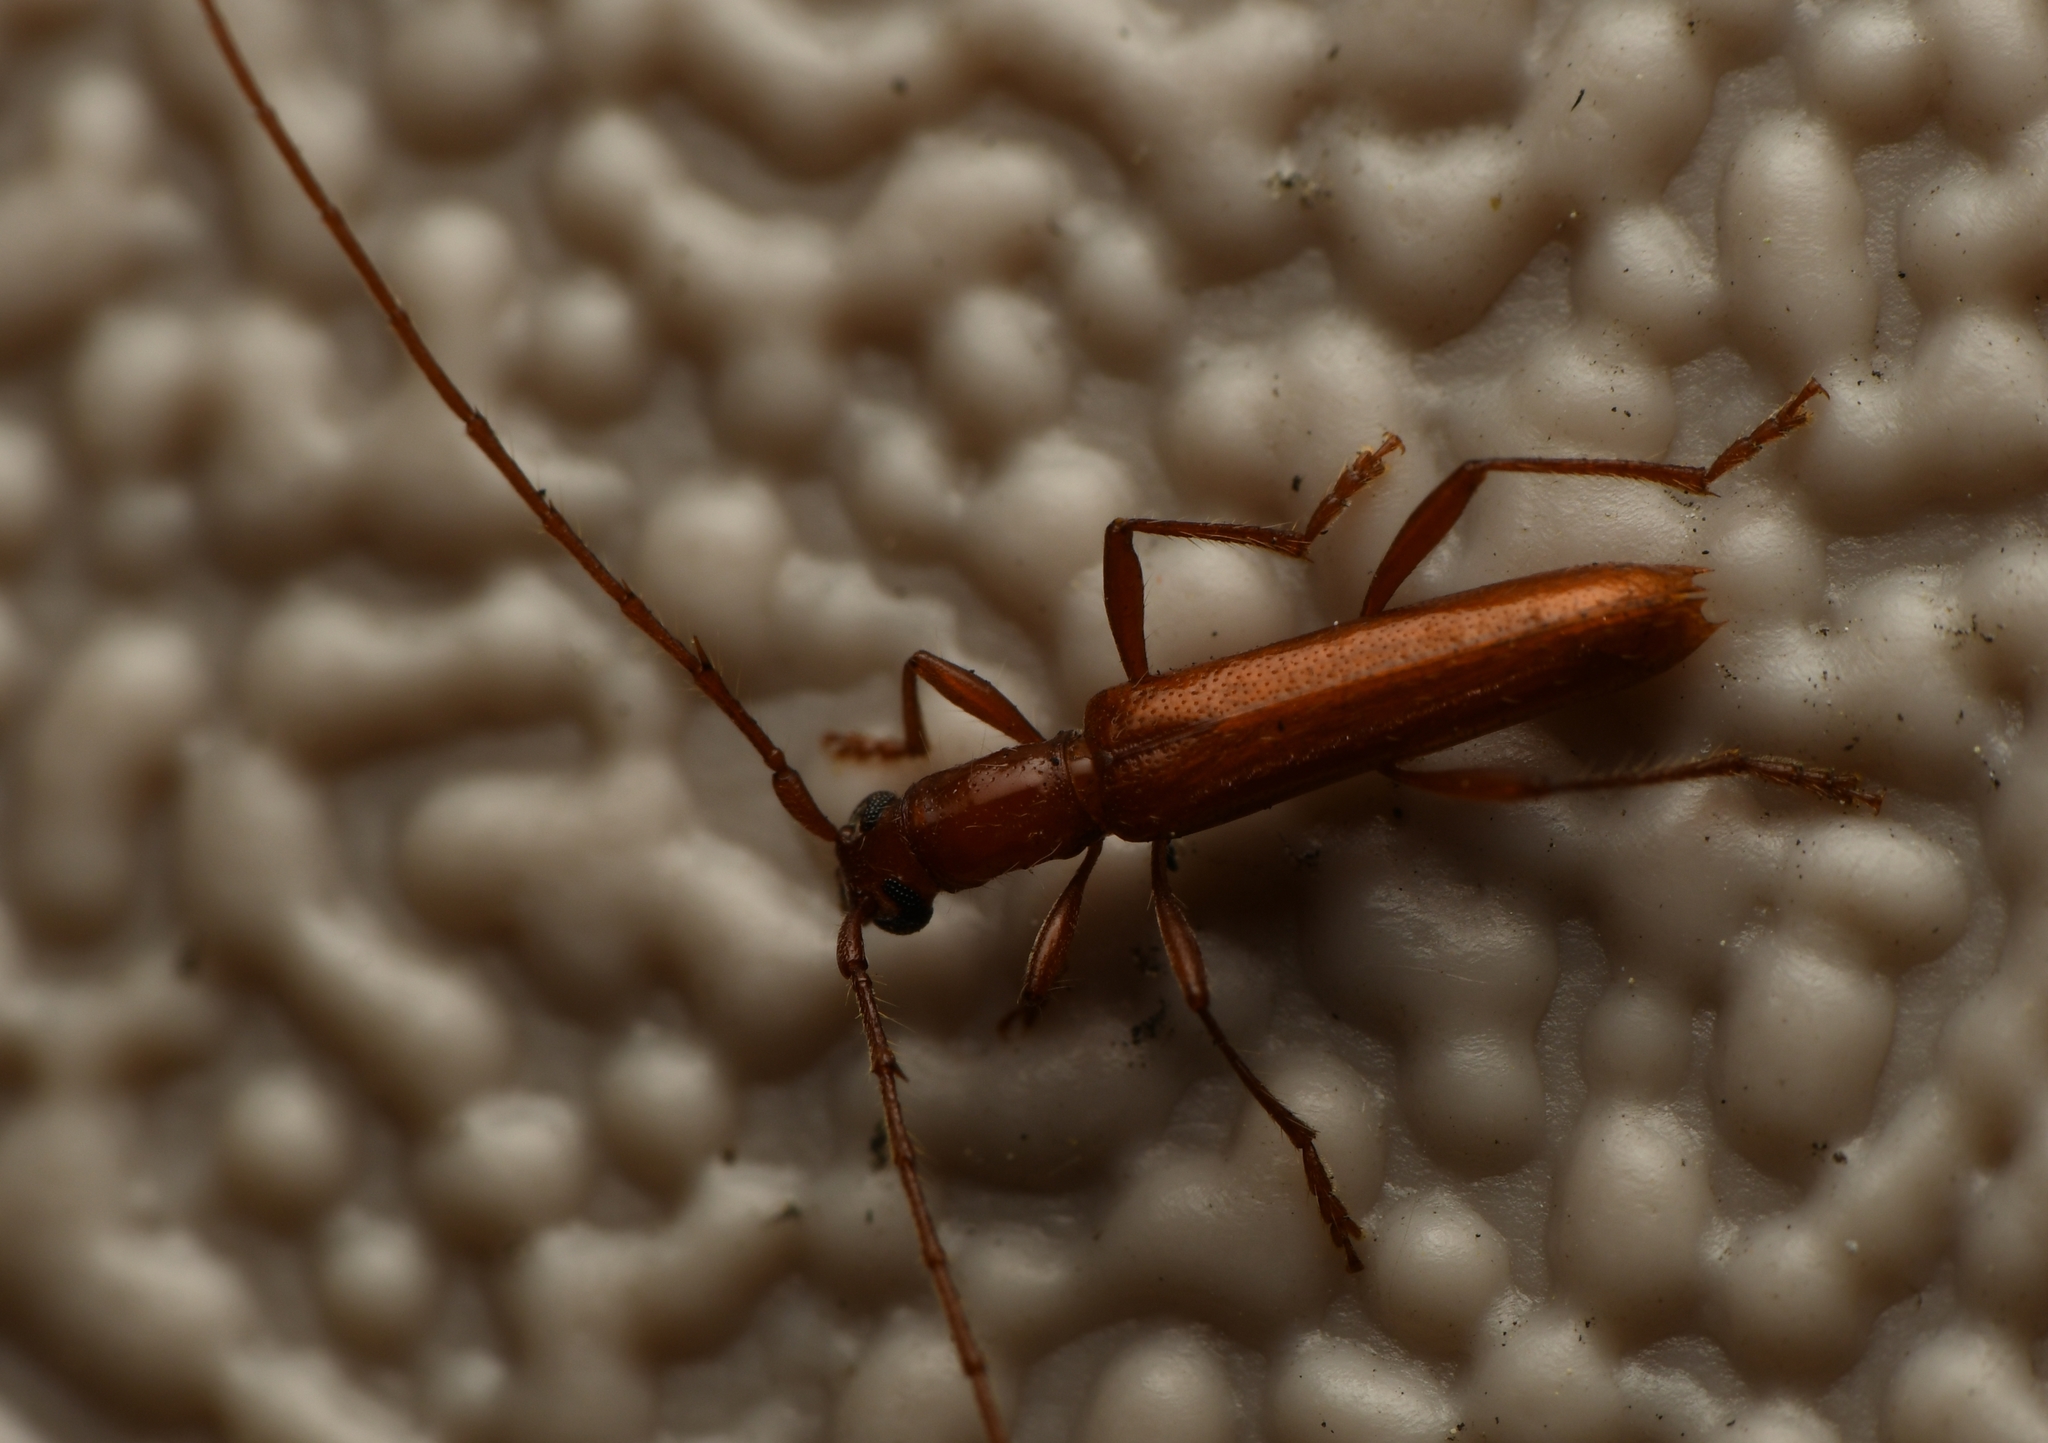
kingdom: Animalia
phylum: Arthropoda
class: Insecta
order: Coleoptera
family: Cerambycidae
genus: Psyrassa
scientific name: Psyrassa pertenuis
